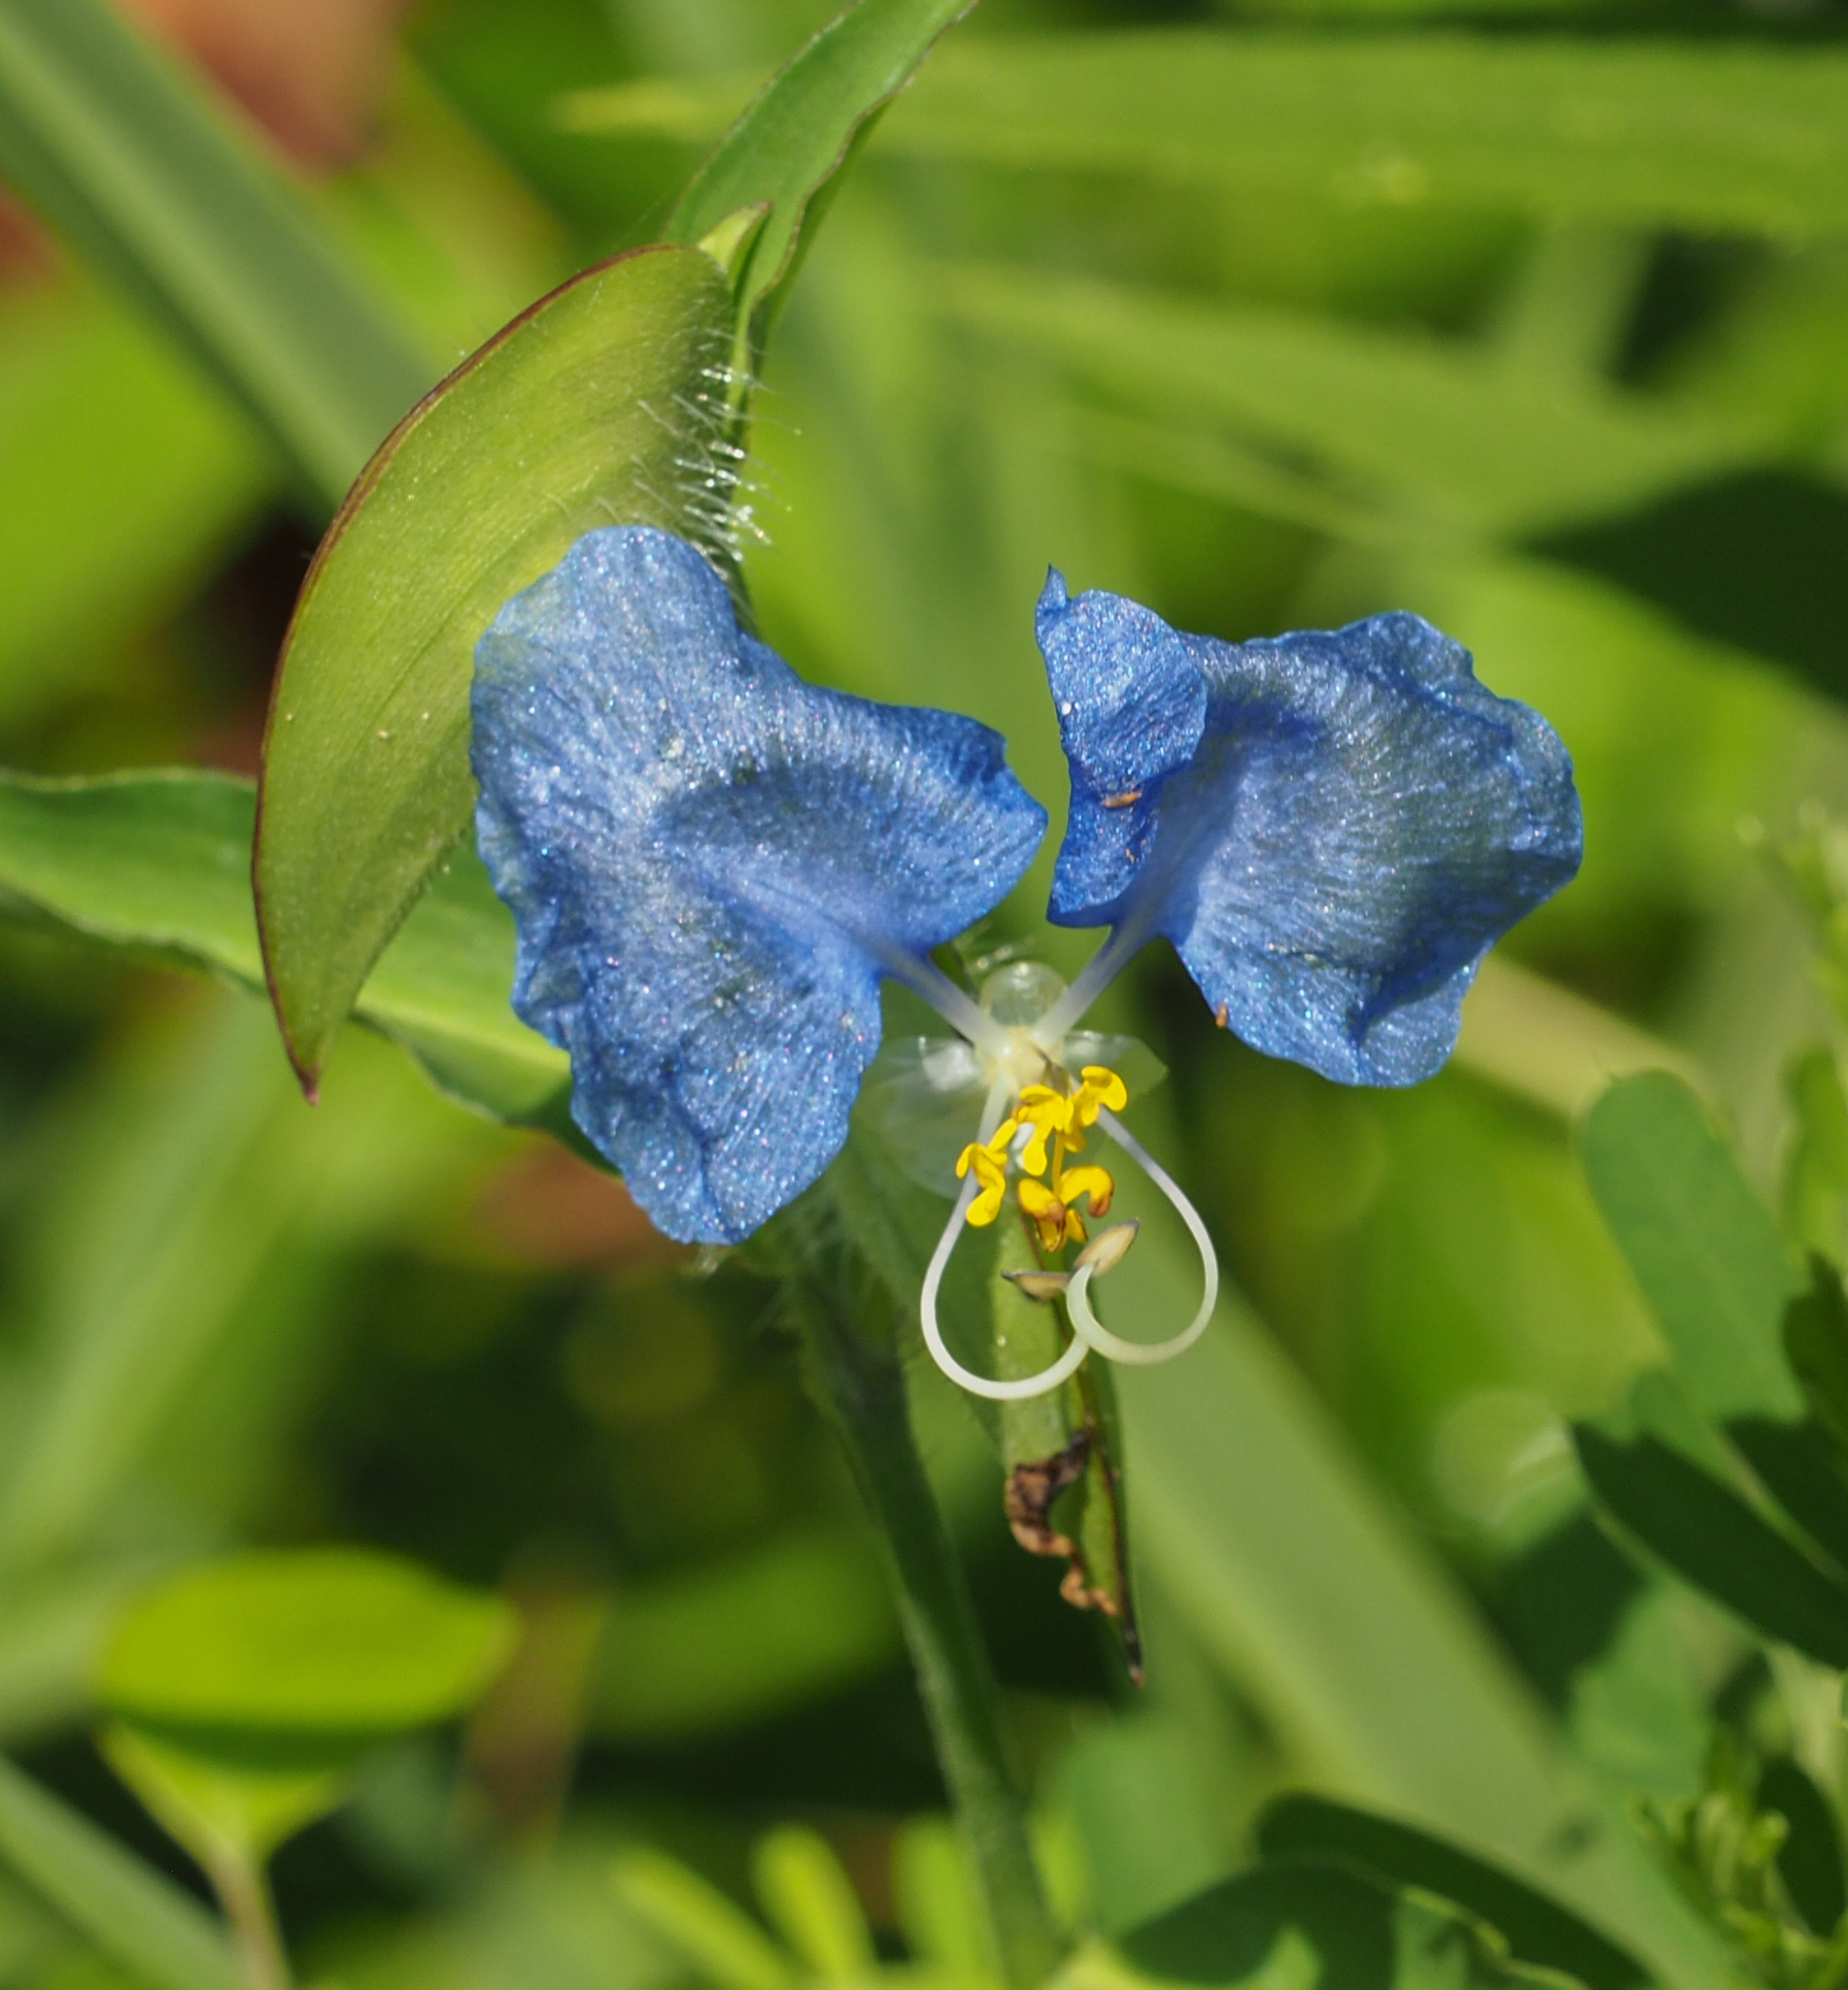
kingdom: Plantae
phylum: Tracheophyta
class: Liliopsida
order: Commelinales
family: Commelinaceae
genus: Commelina
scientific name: Commelina erecta
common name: Blousel blommetjie
